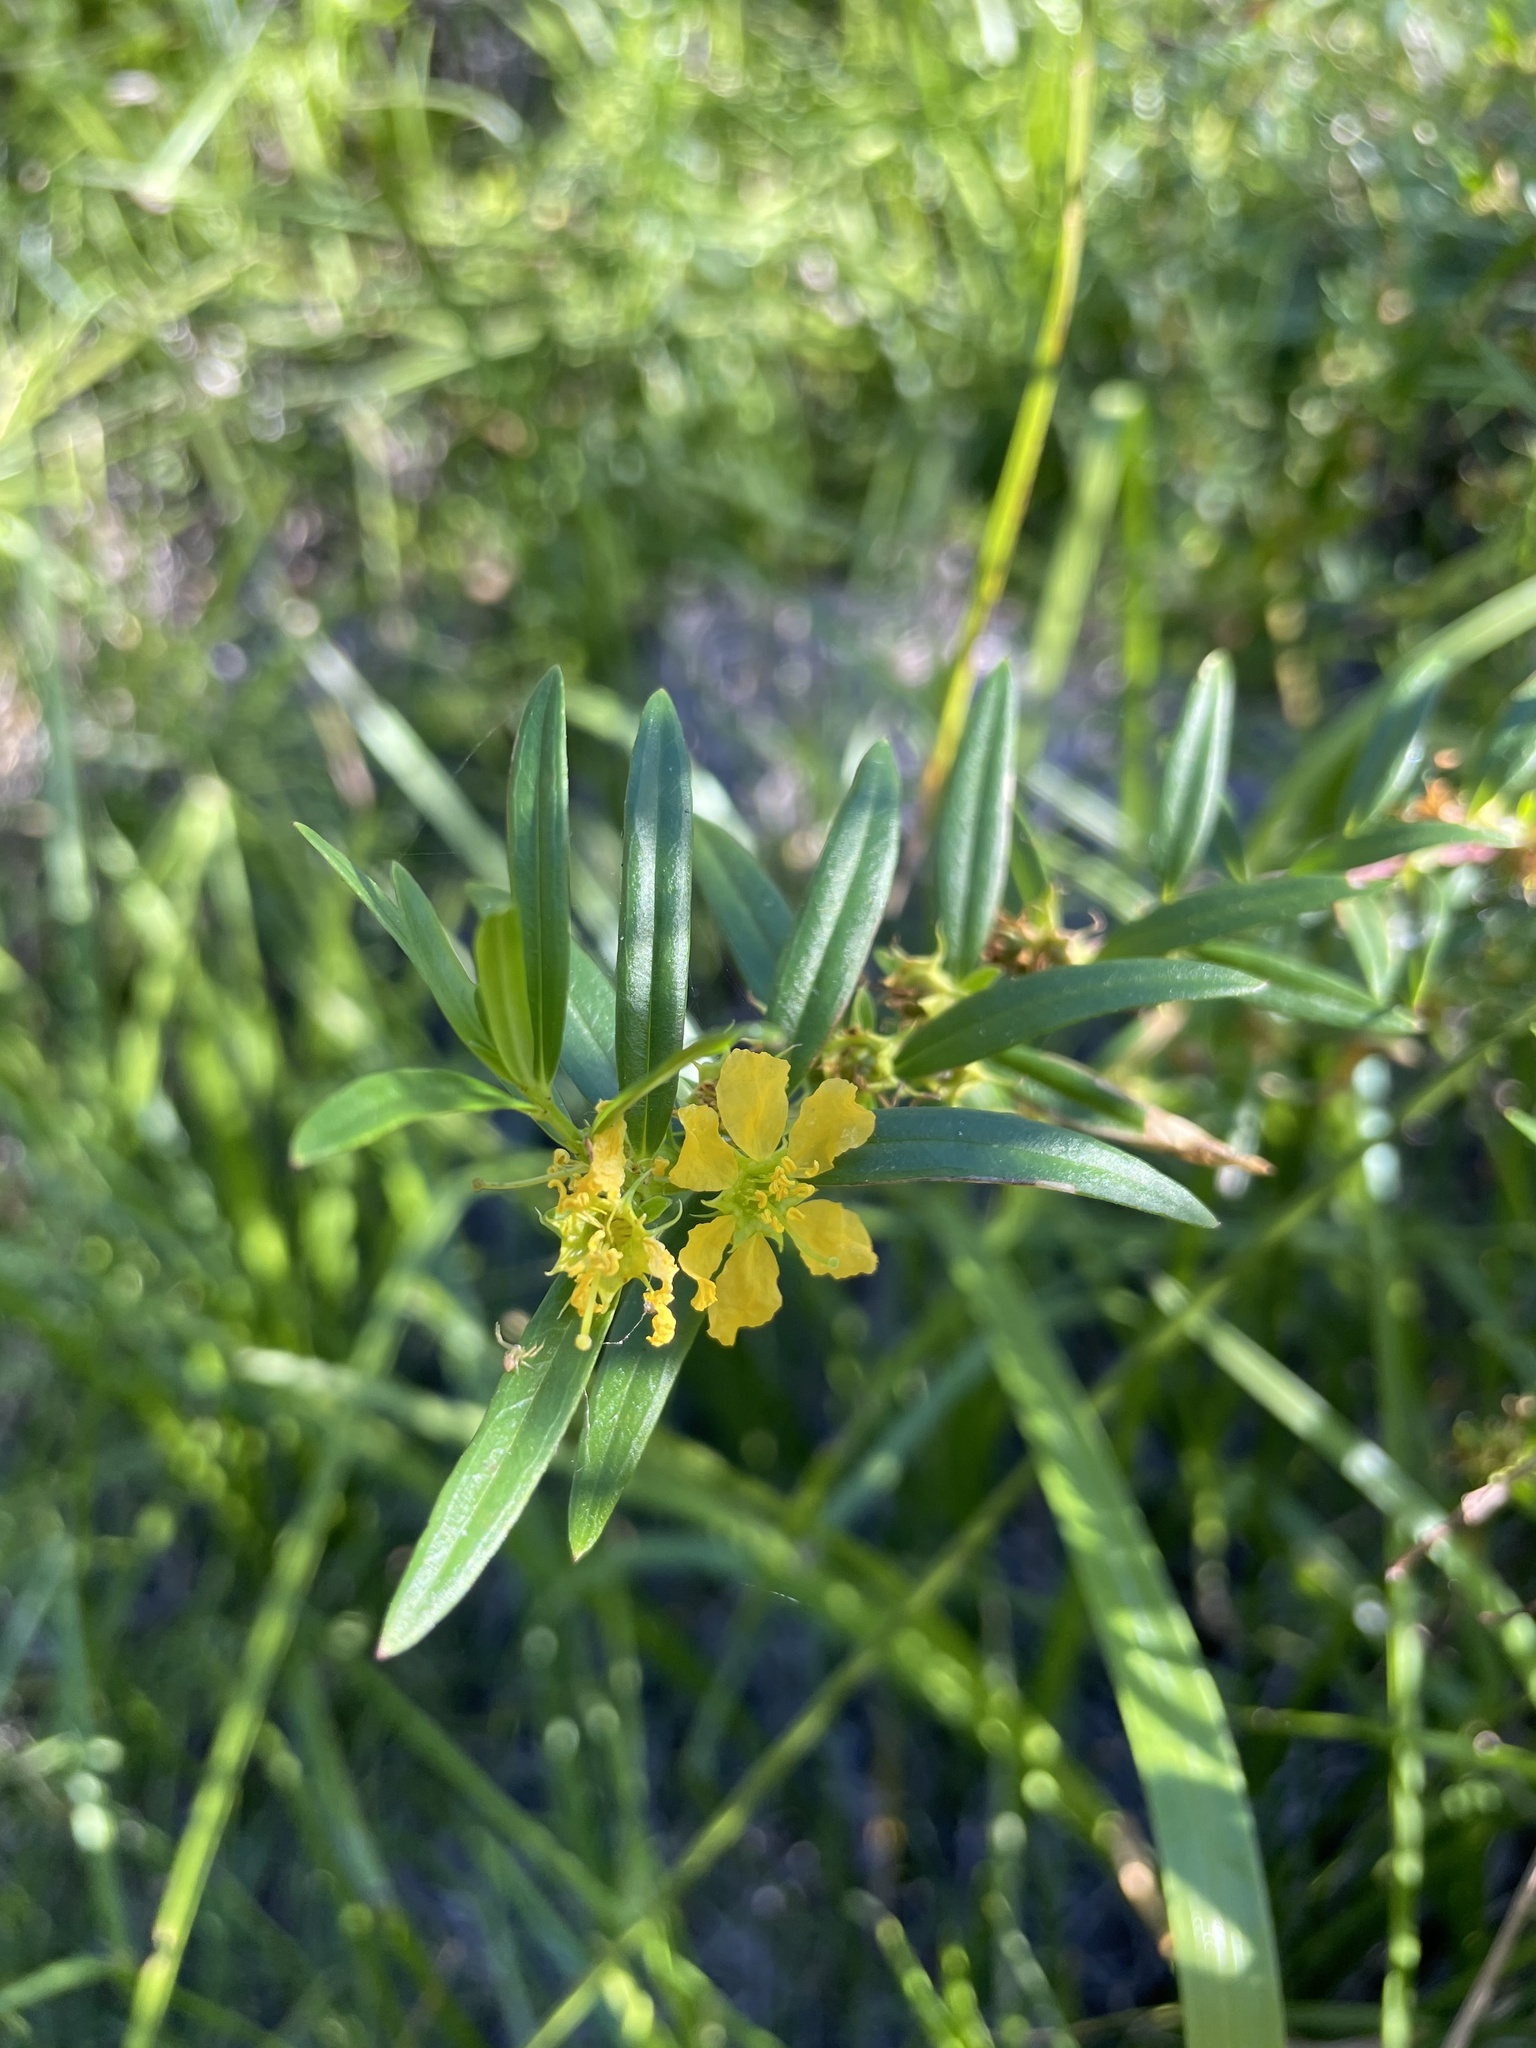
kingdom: Plantae
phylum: Tracheophyta
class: Magnoliopsida
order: Myrtales
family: Lythraceae
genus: Heimia
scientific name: Heimia salicifolia
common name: Willow-leaf heimia
